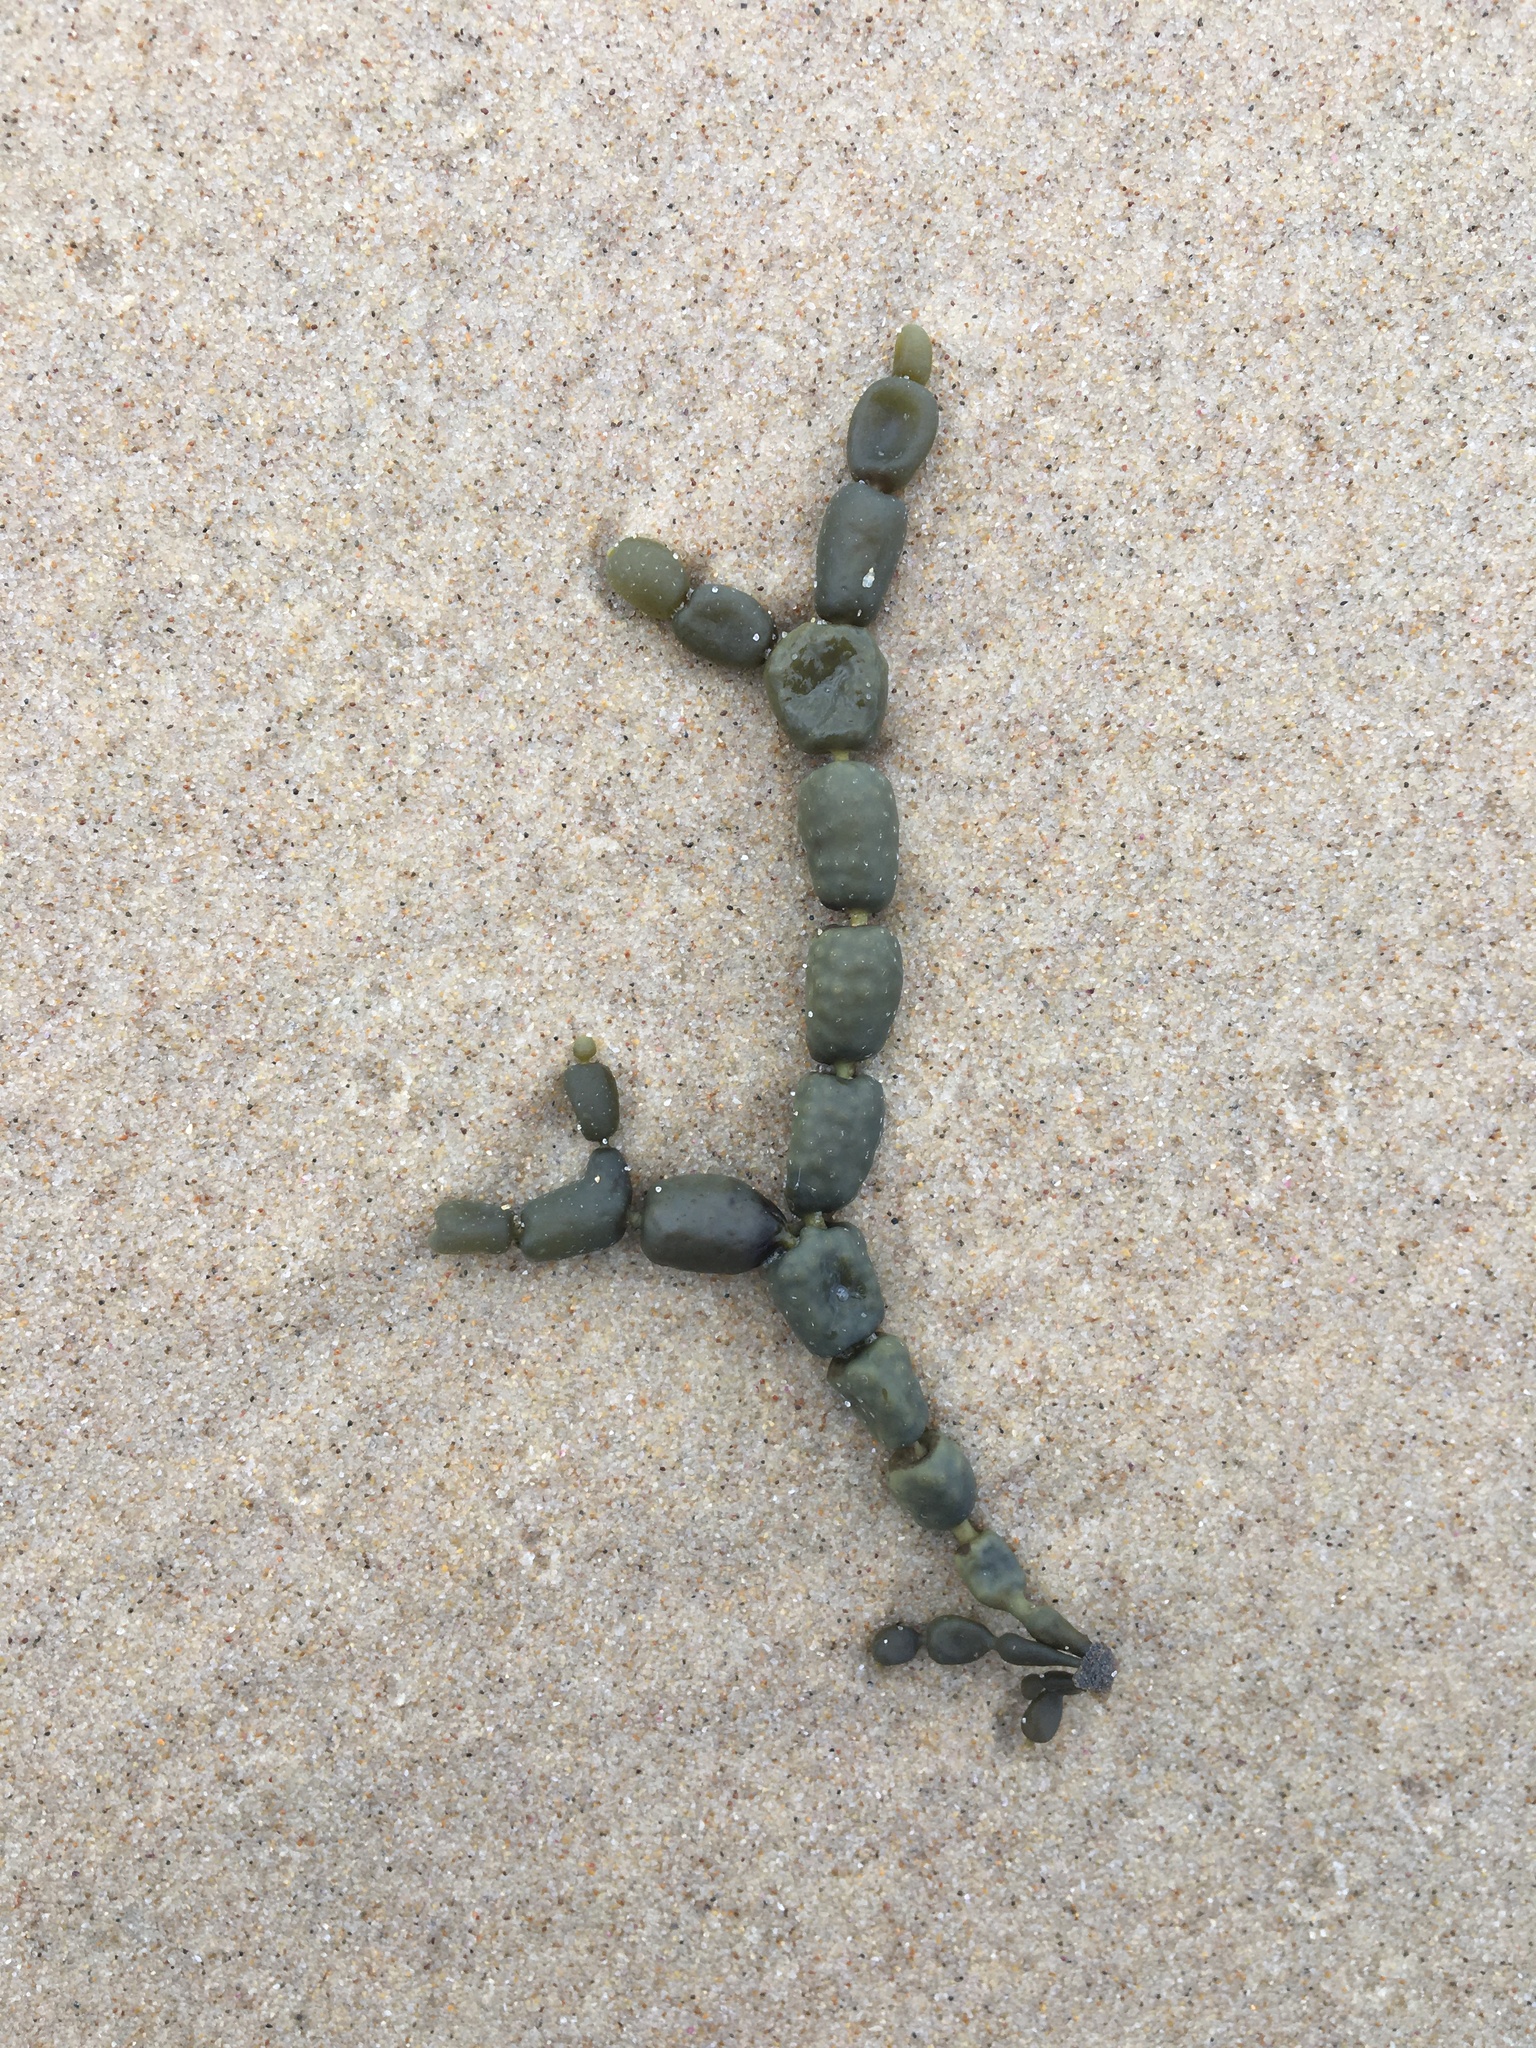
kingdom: Chromista
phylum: Ochrophyta
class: Phaeophyceae
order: Fucales
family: Hormosiraceae
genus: Hormosira
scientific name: Hormosira banksii
